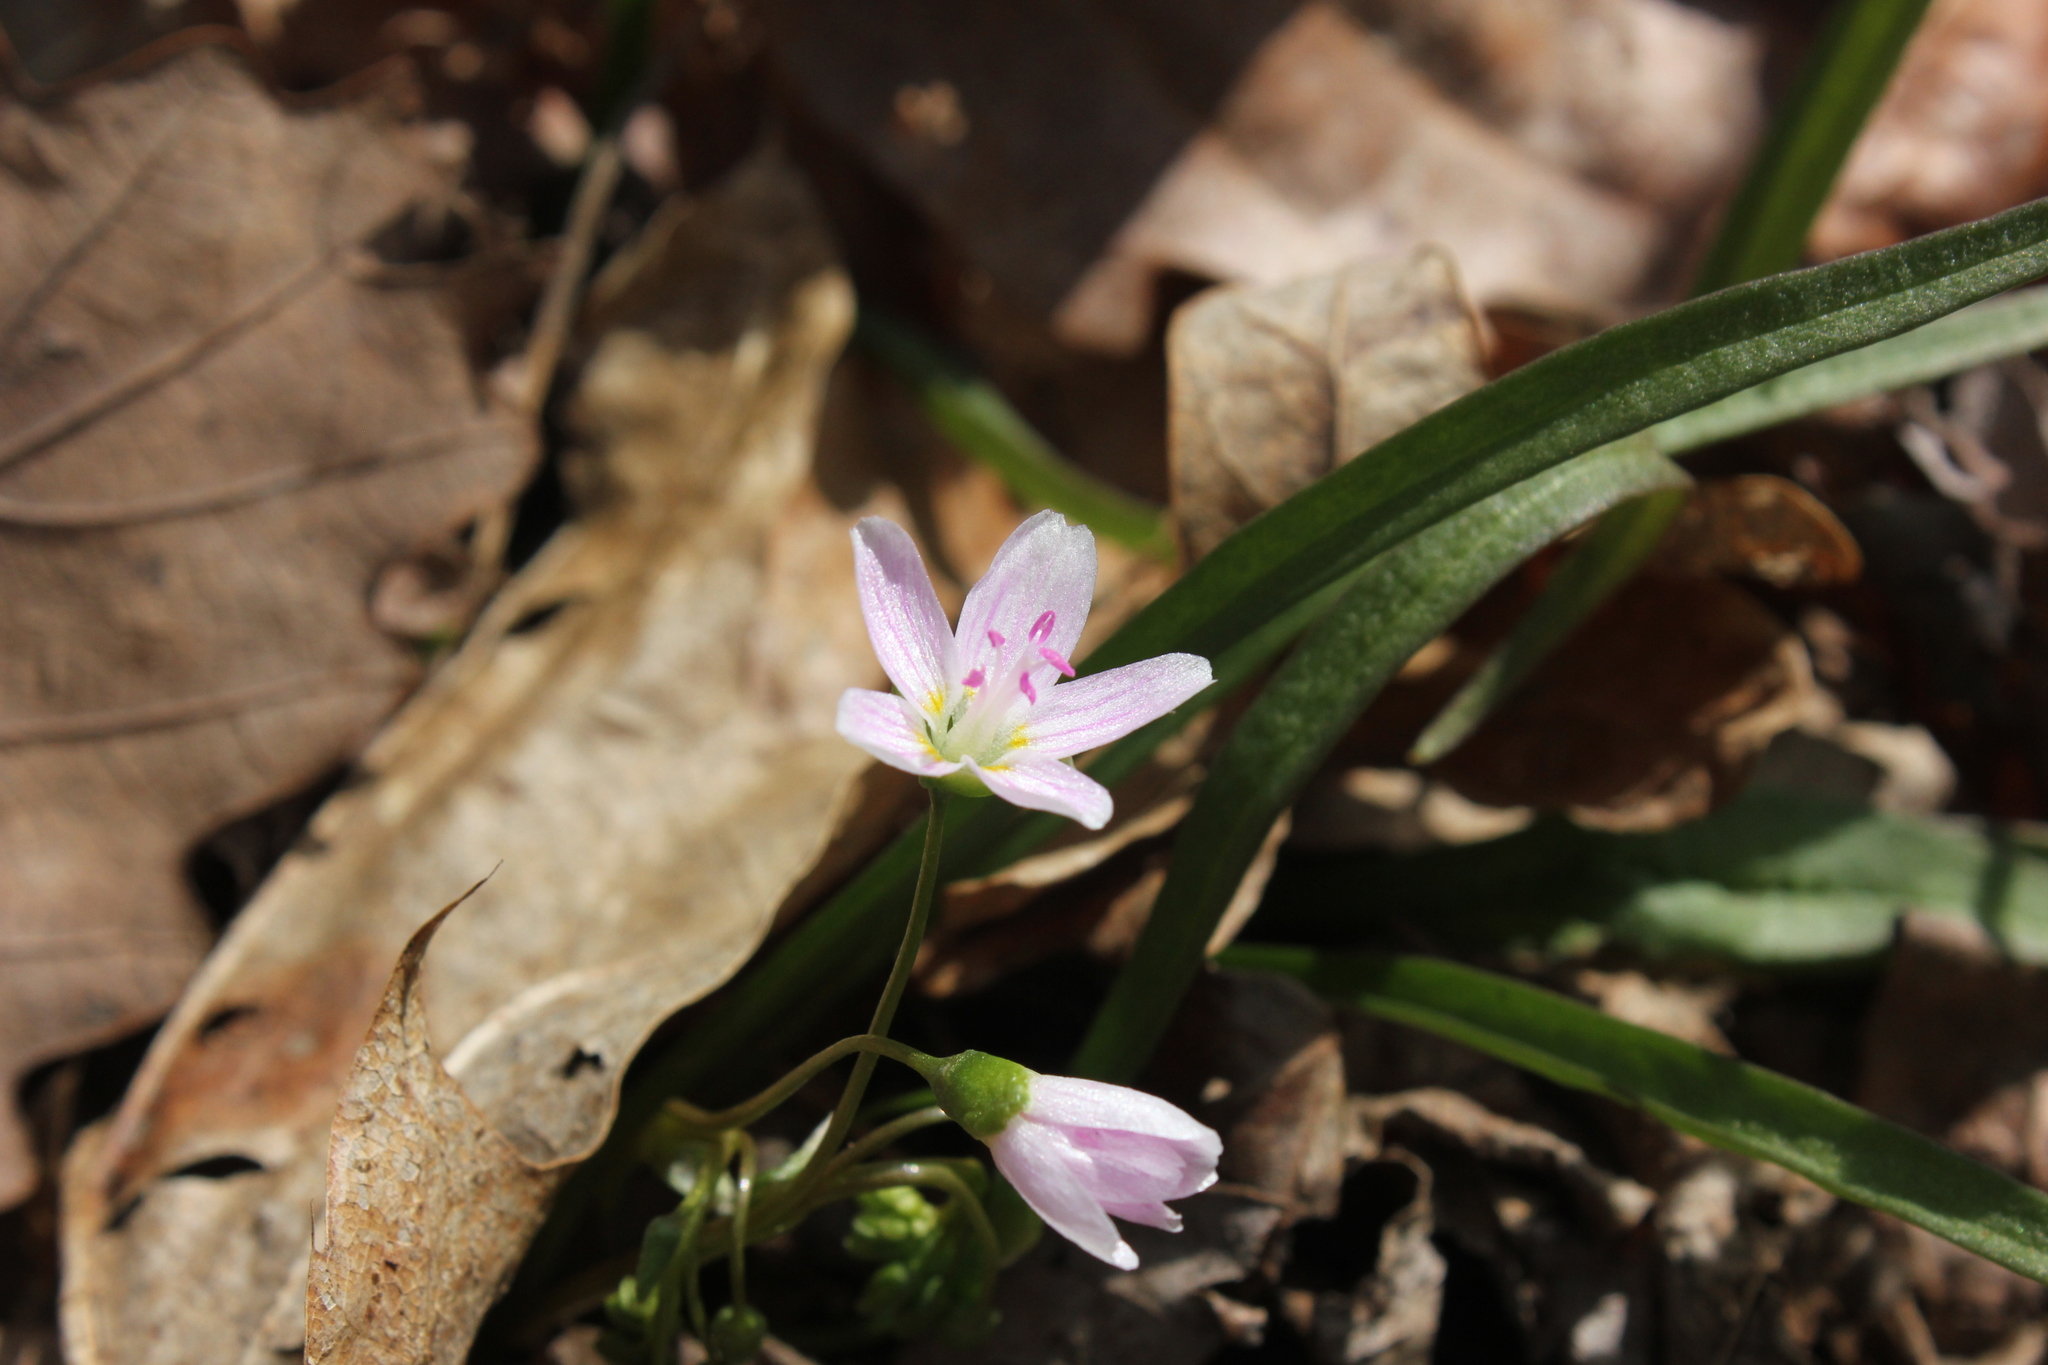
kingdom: Plantae
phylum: Tracheophyta
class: Magnoliopsida
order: Caryophyllales
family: Montiaceae
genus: Claytonia
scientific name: Claytonia virginica
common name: Virginia springbeauty
